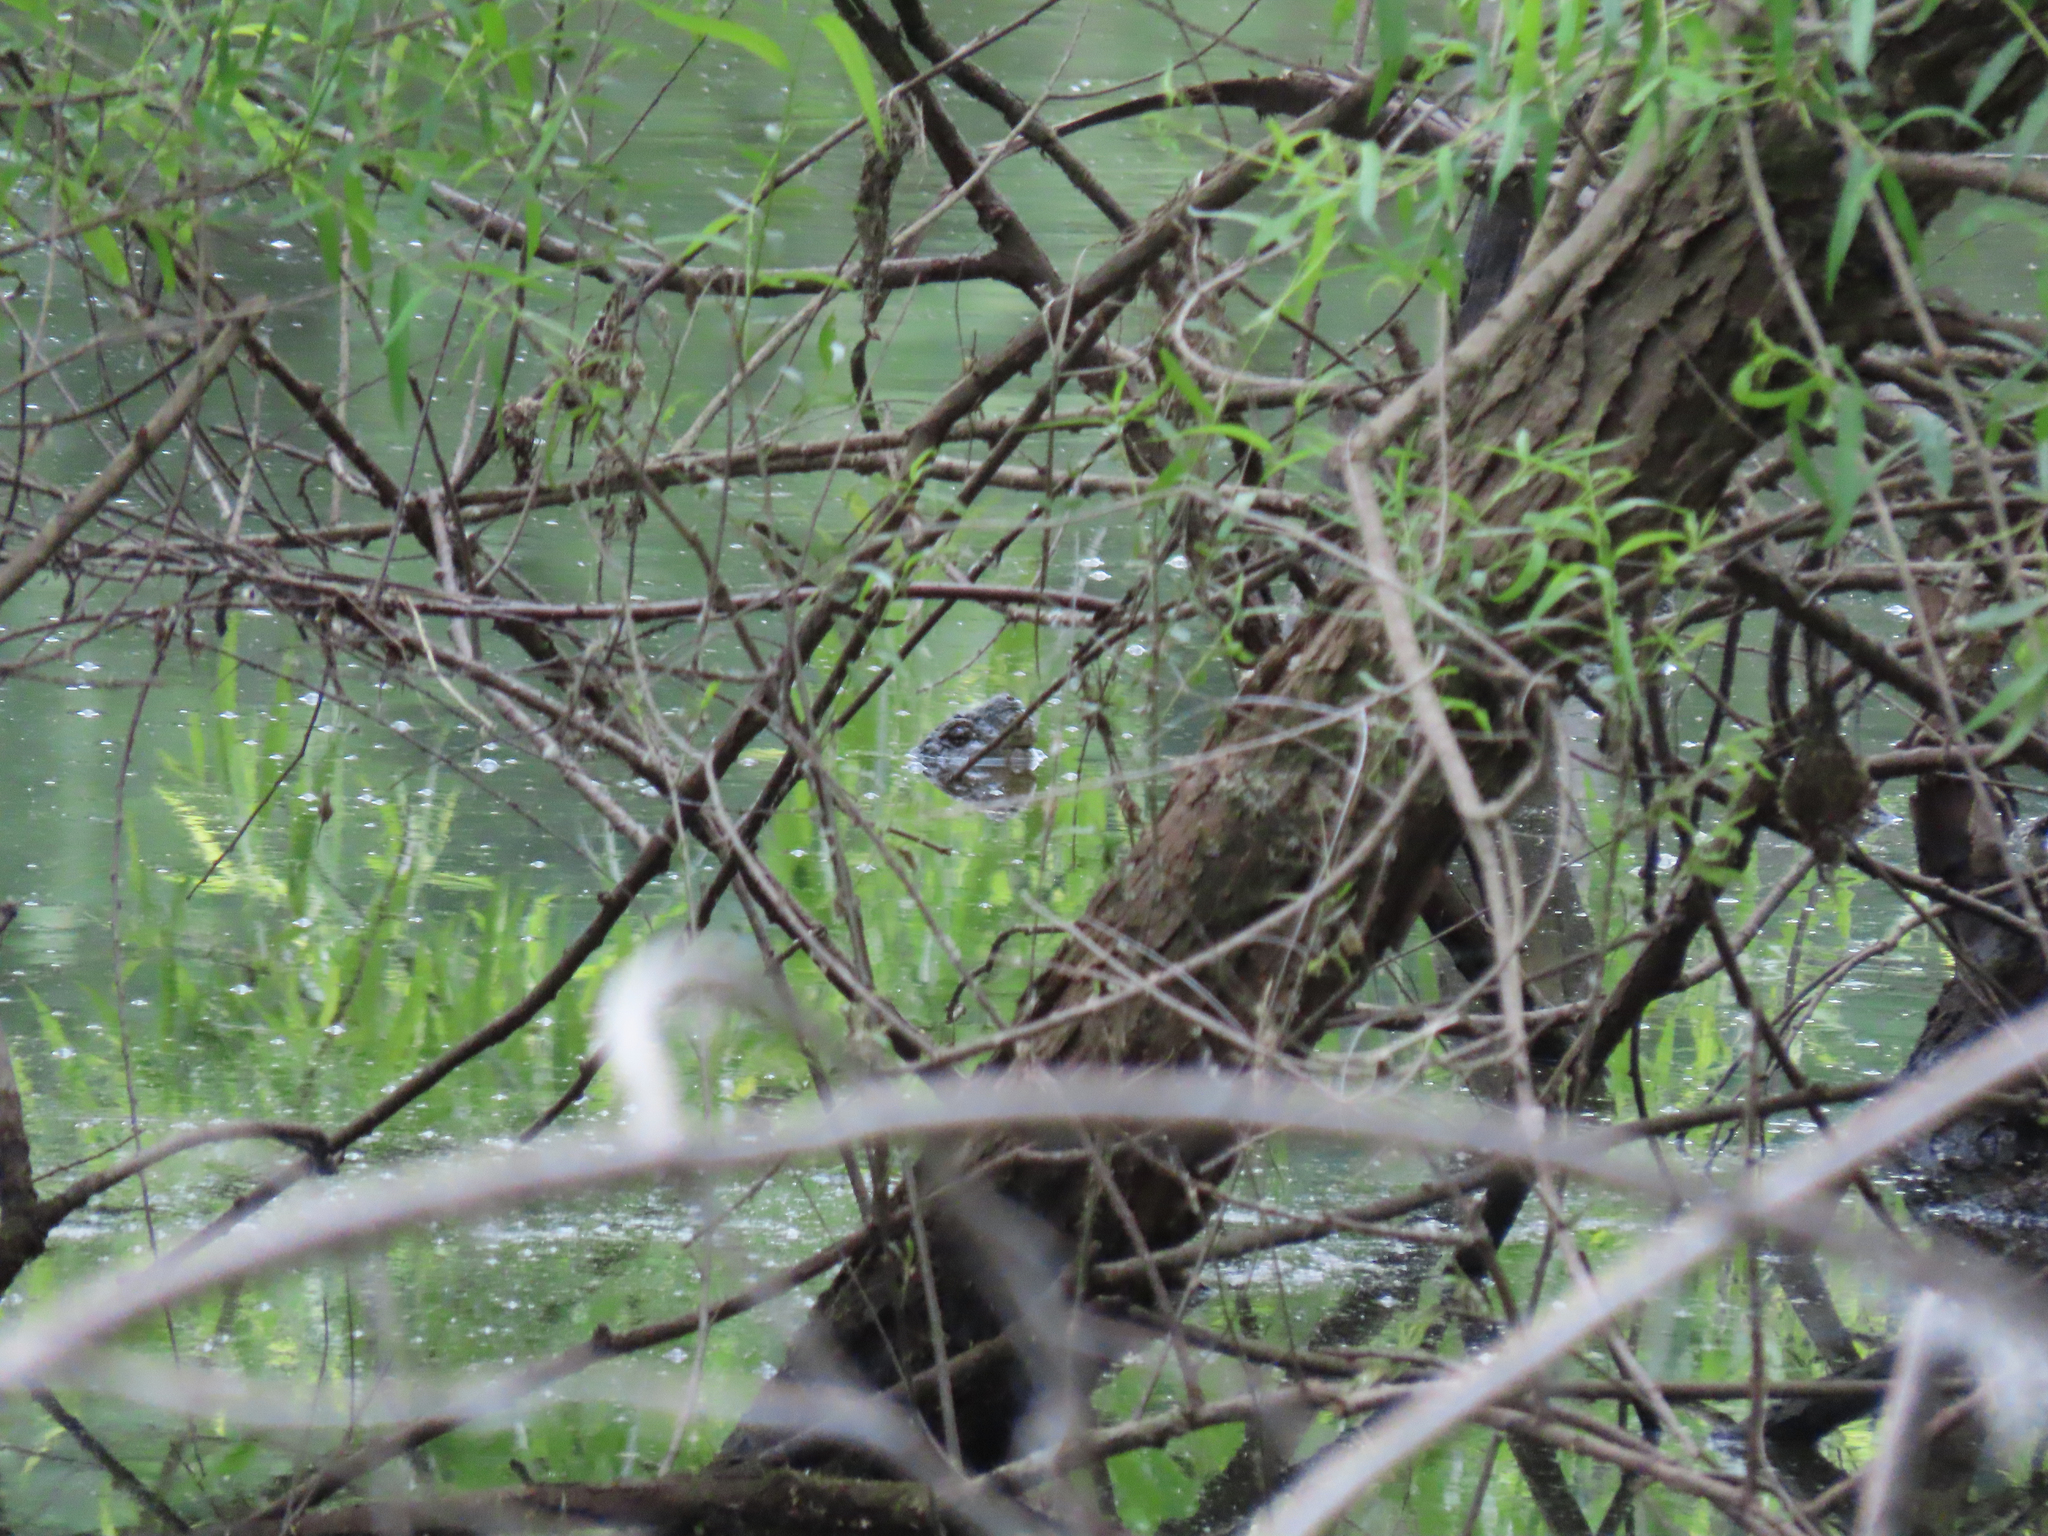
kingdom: Animalia
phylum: Chordata
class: Testudines
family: Chelydridae
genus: Chelydra
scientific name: Chelydra serpentina
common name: Common snapping turtle
